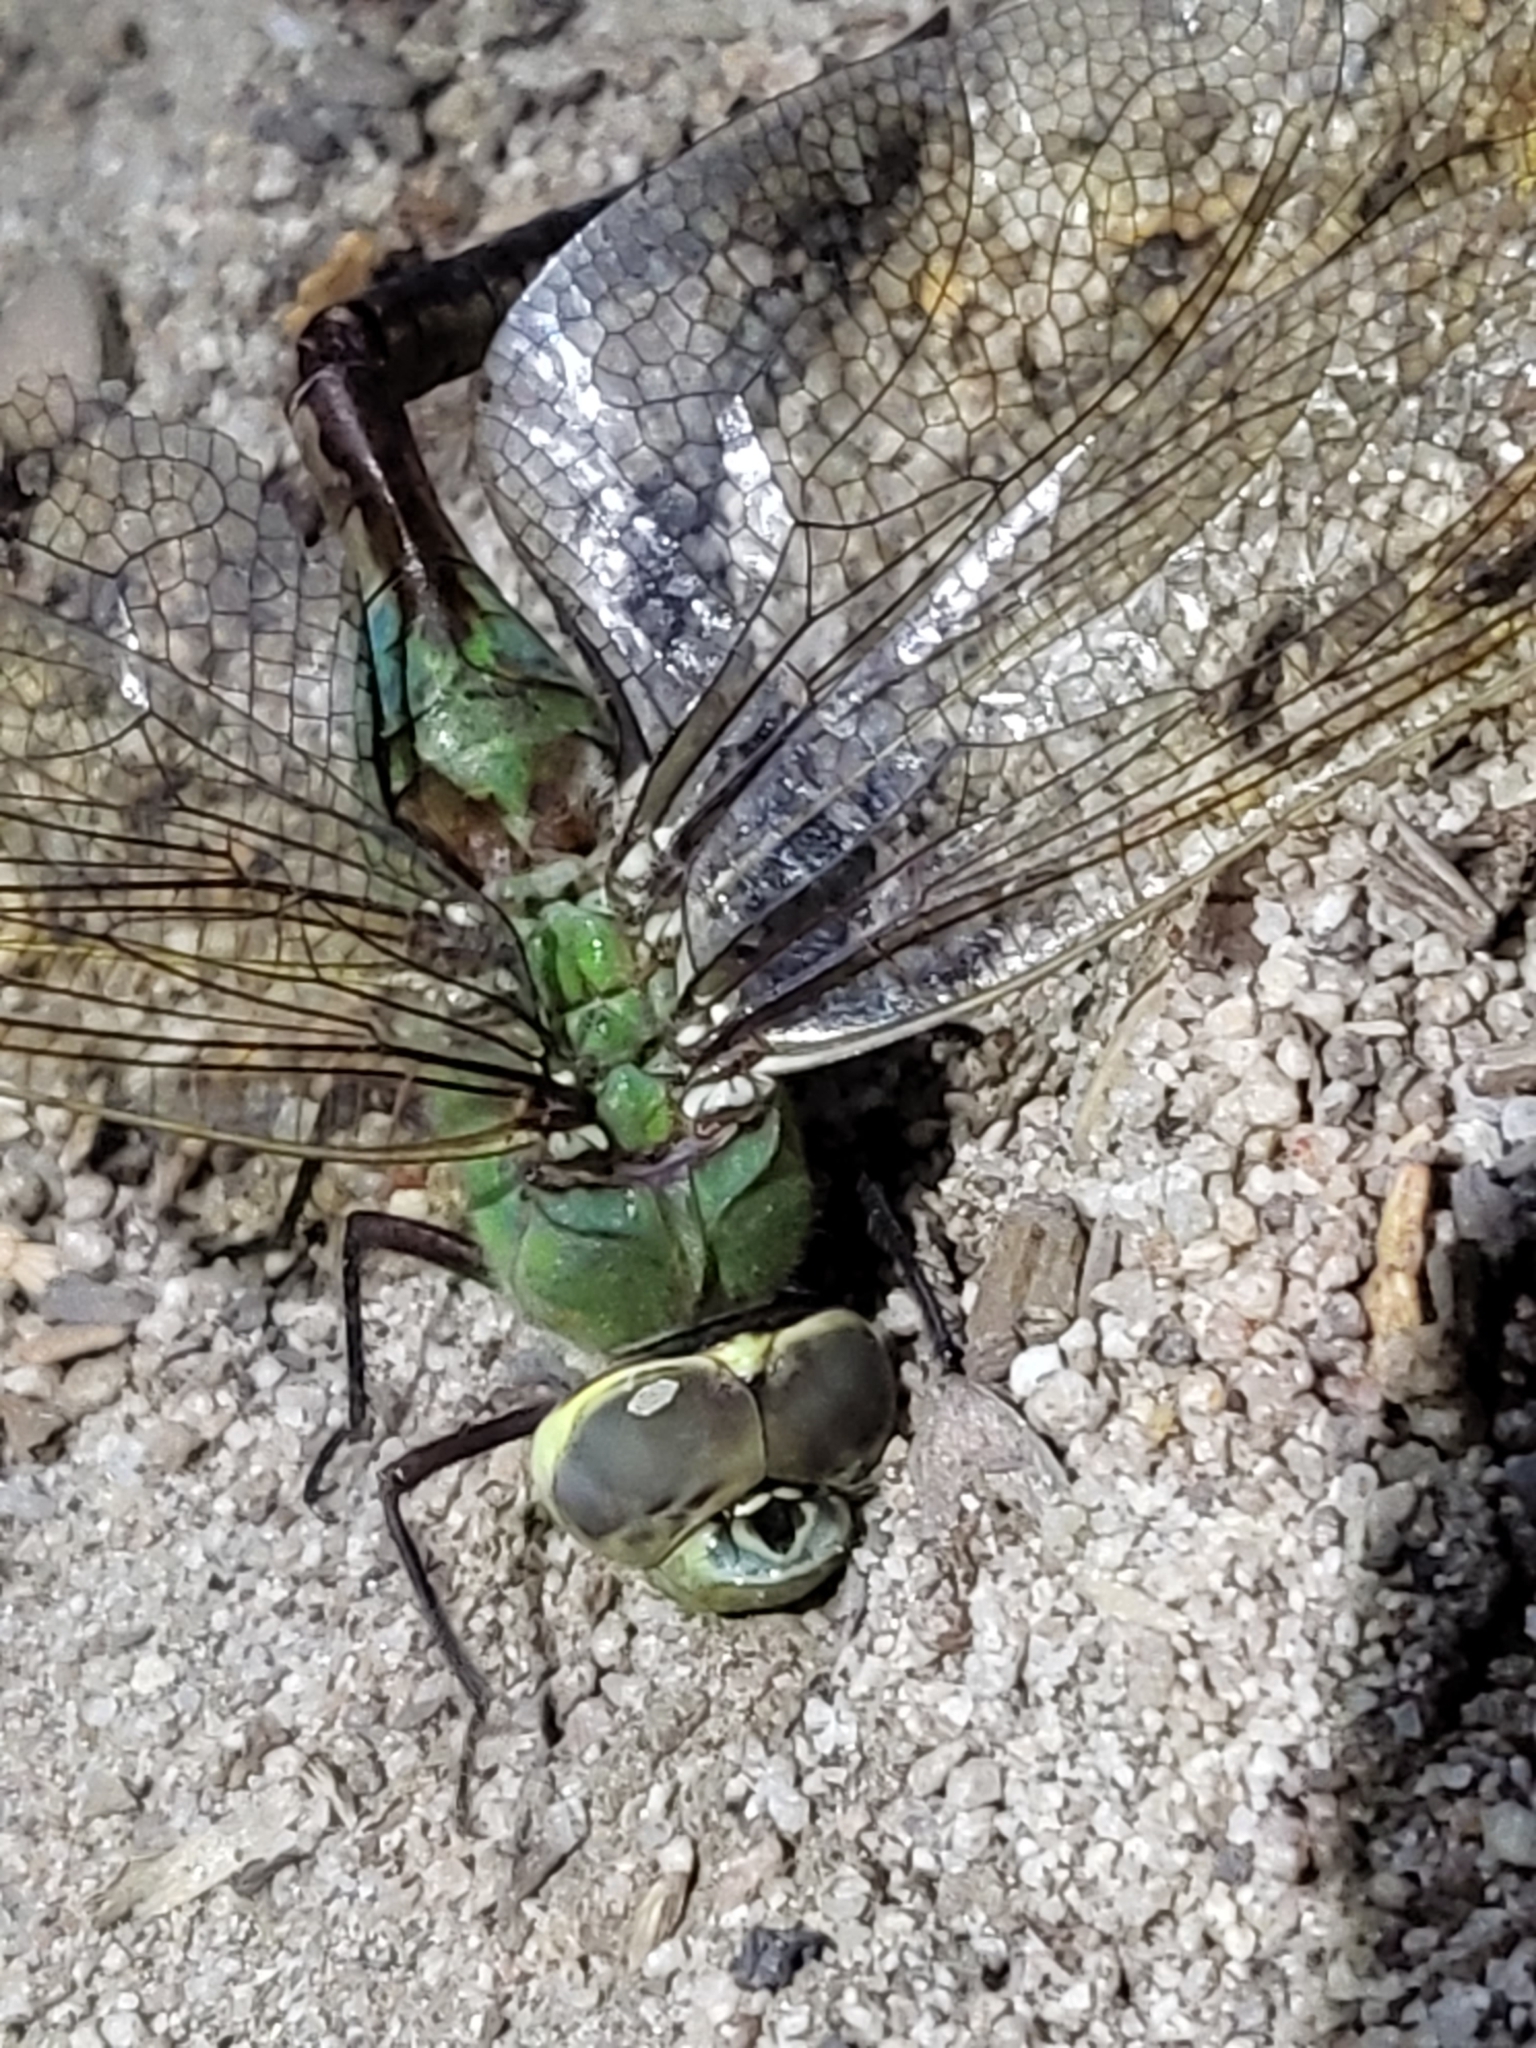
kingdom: Animalia
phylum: Arthropoda
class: Insecta
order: Odonata
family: Aeshnidae
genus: Anax
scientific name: Anax junius
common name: Common green darner
